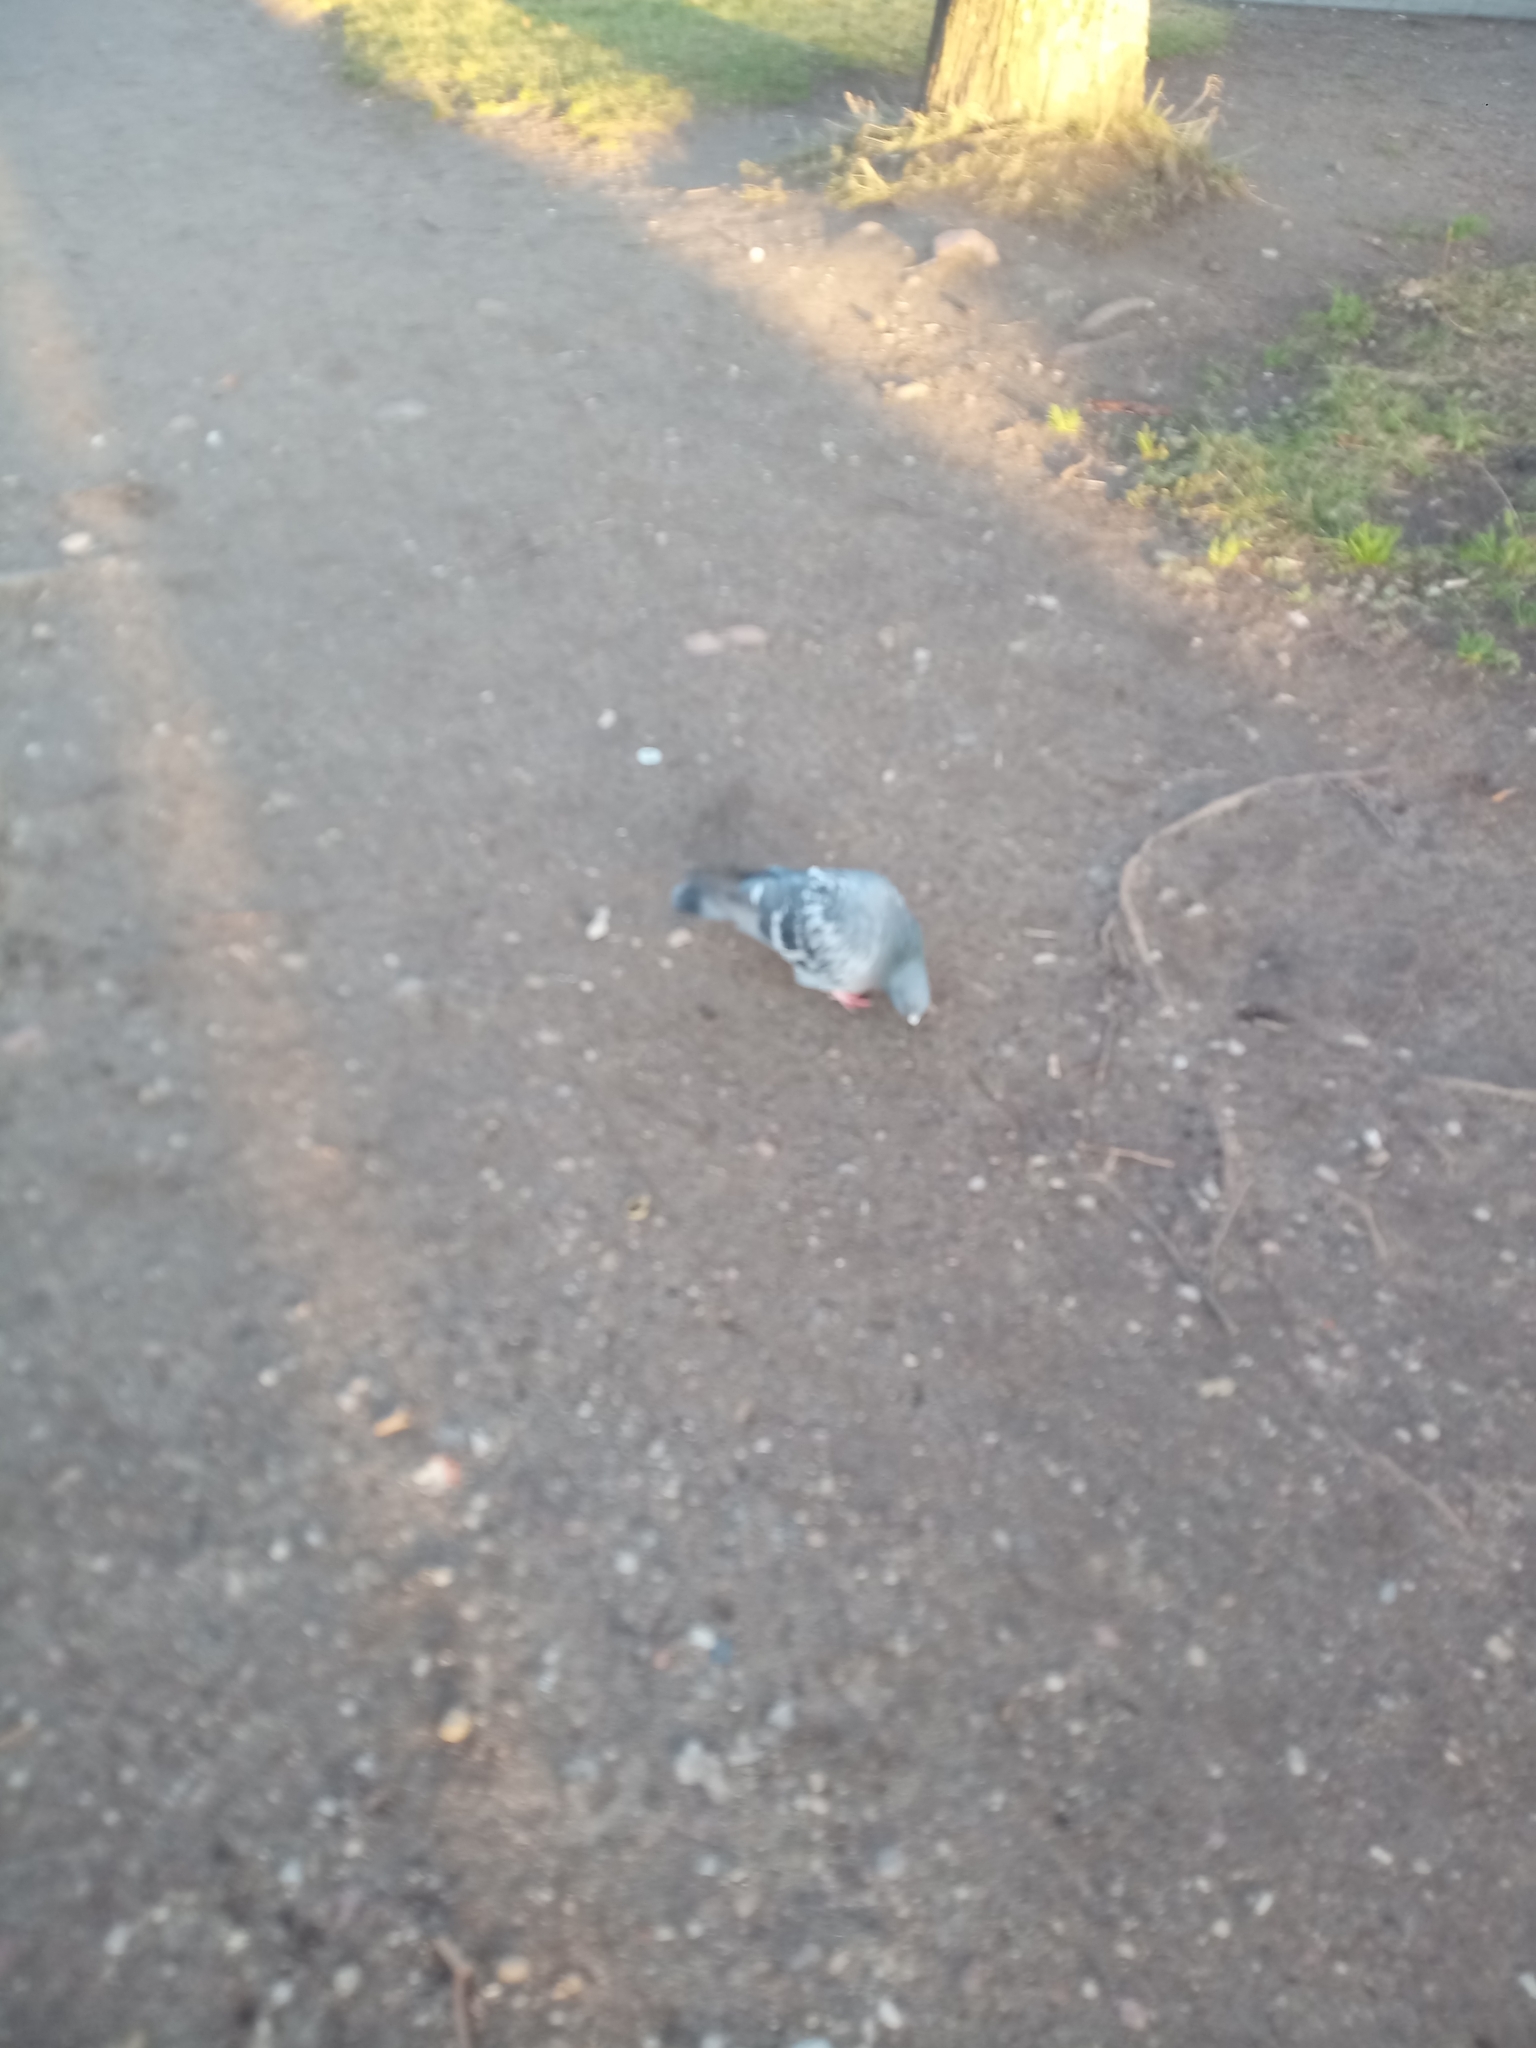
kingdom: Animalia
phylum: Chordata
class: Aves
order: Columbiformes
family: Columbidae
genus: Columba
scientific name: Columba livia
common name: Rock pigeon
